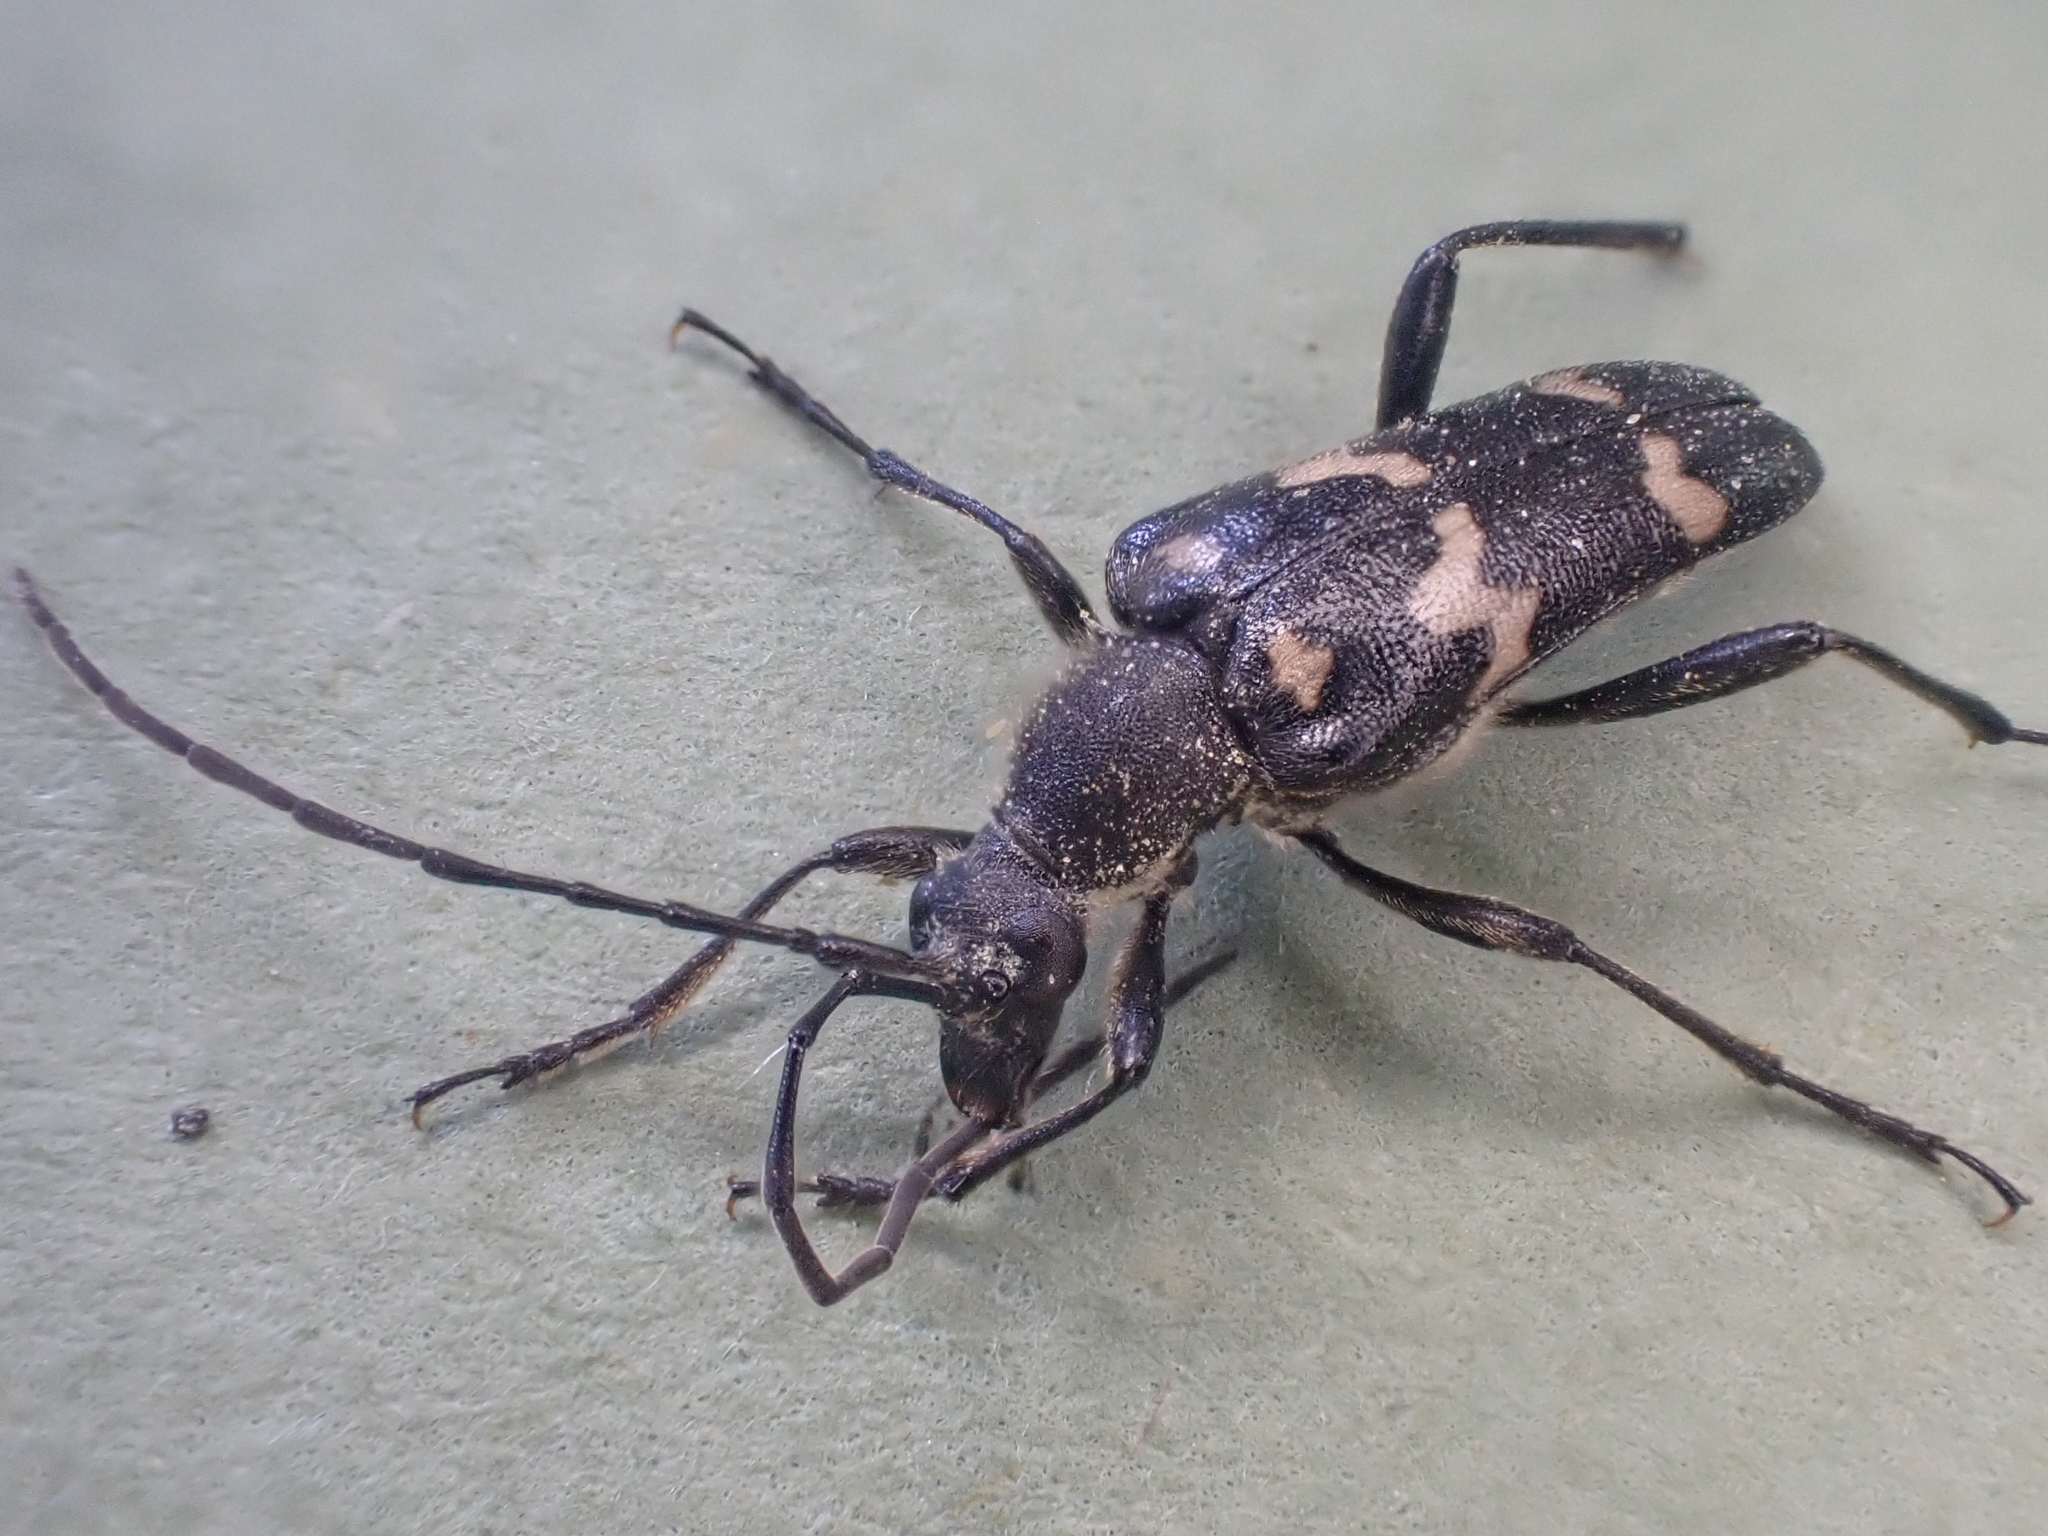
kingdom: Animalia
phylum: Arthropoda
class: Insecta
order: Coleoptera
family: Cerambycidae
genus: Judolia
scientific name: Judolia montivagans
